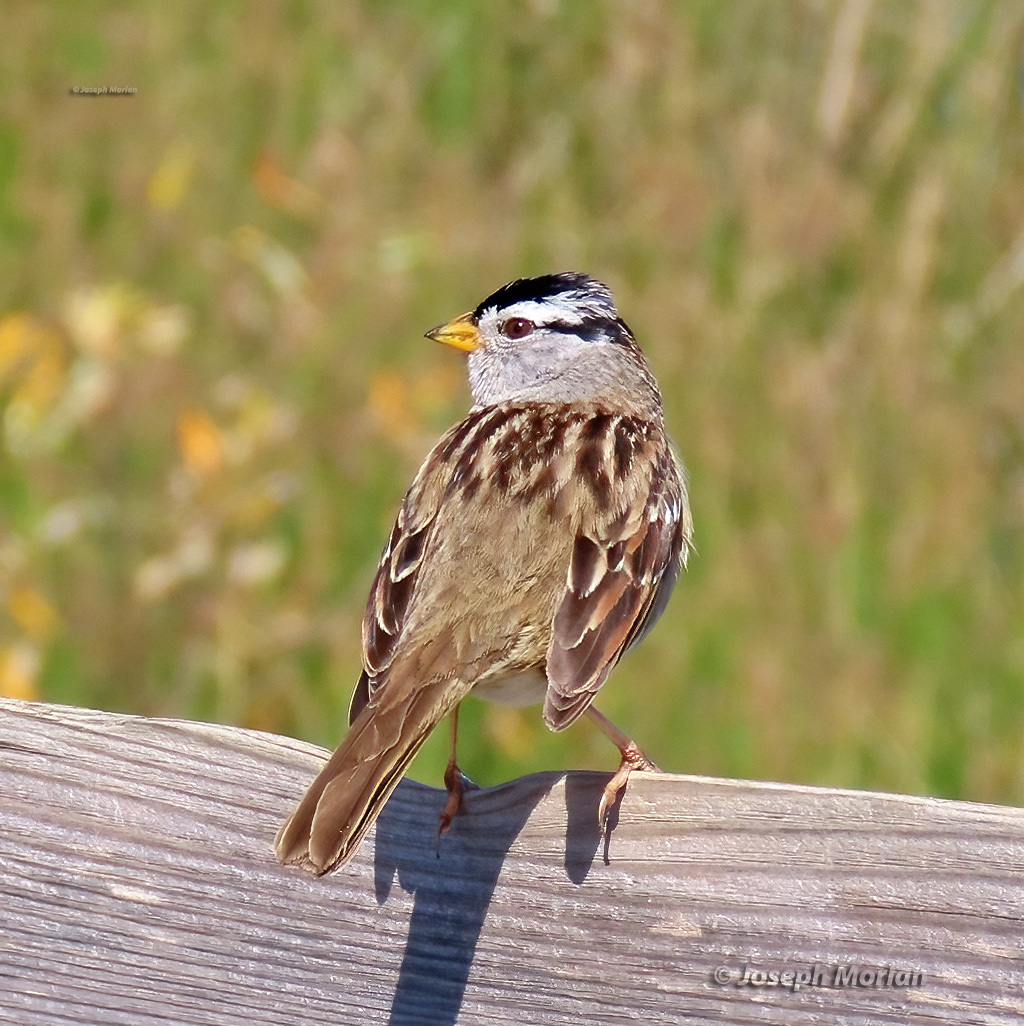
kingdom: Animalia
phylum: Chordata
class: Aves
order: Passeriformes
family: Passerellidae
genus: Zonotrichia
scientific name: Zonotrichia leucophrys
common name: White-crowned sparrow
